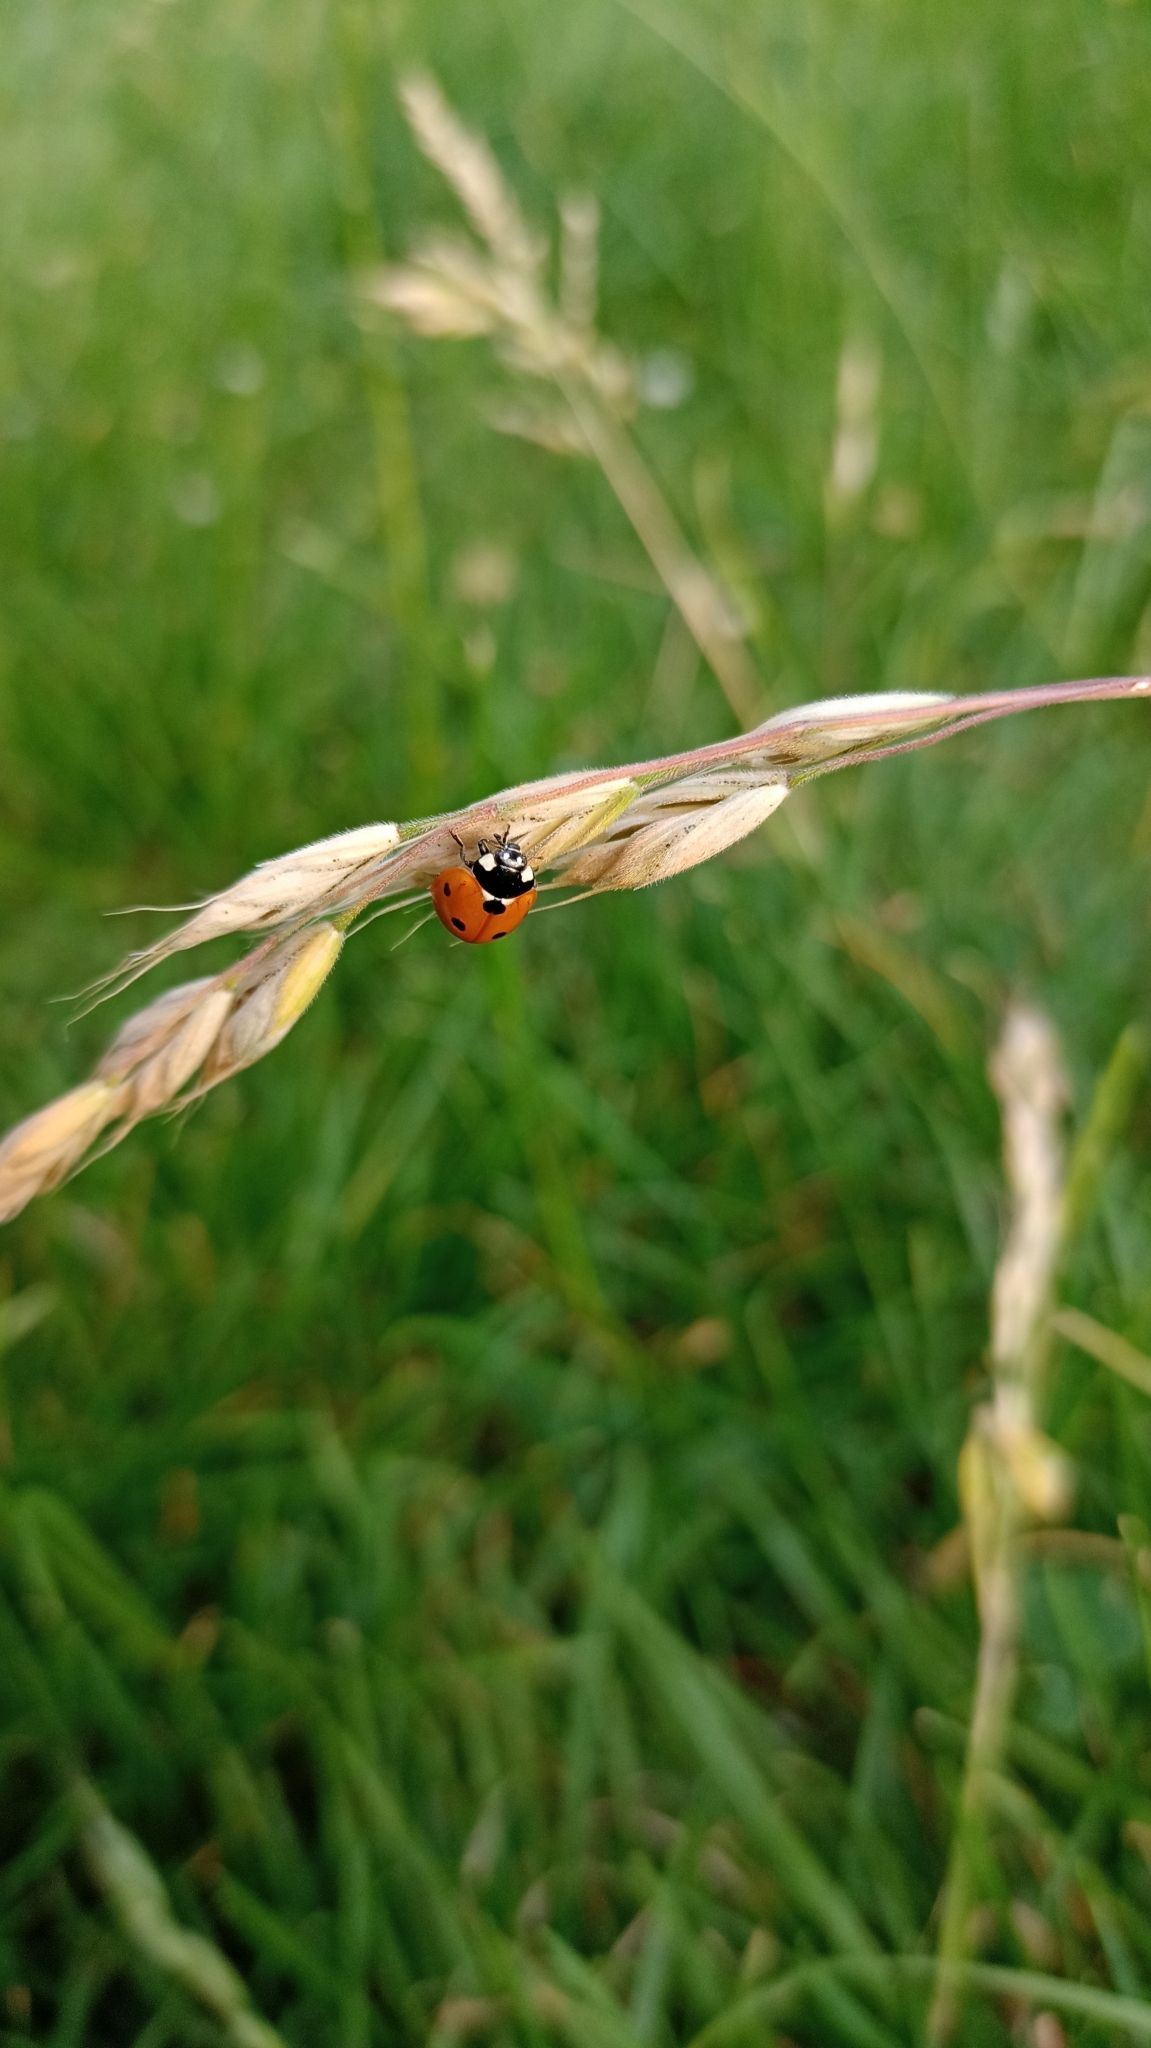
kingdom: Animalia
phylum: Arthropoda
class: Insecta
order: Coleoptera
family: Coccinellidae
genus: Coccinella
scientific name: Coccinella septempunctata
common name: Sevenspotted lady beetle
